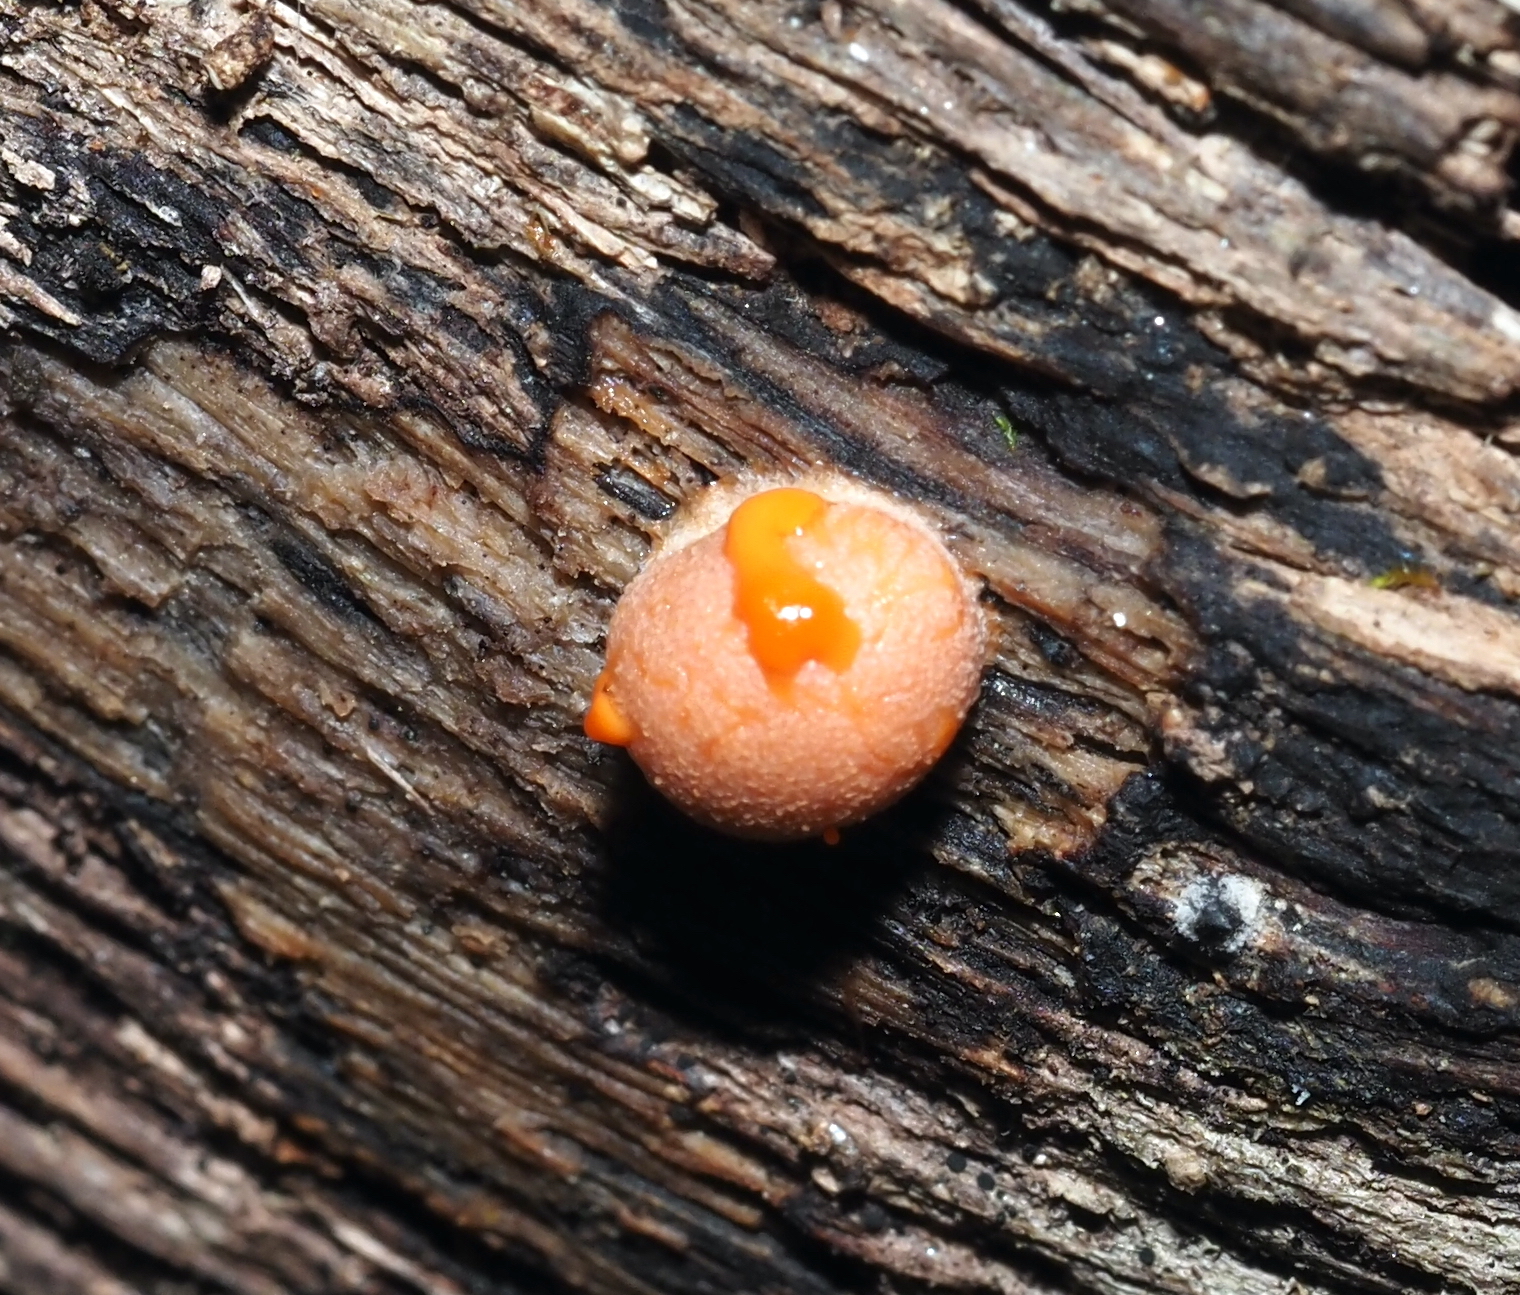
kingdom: Protozoa
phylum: Mycetozoa
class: Myxomycetes
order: Cribrariales
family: Tubiferaceae
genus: Lycogala
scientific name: Lycogala epidendrum
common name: Wolf's milk
